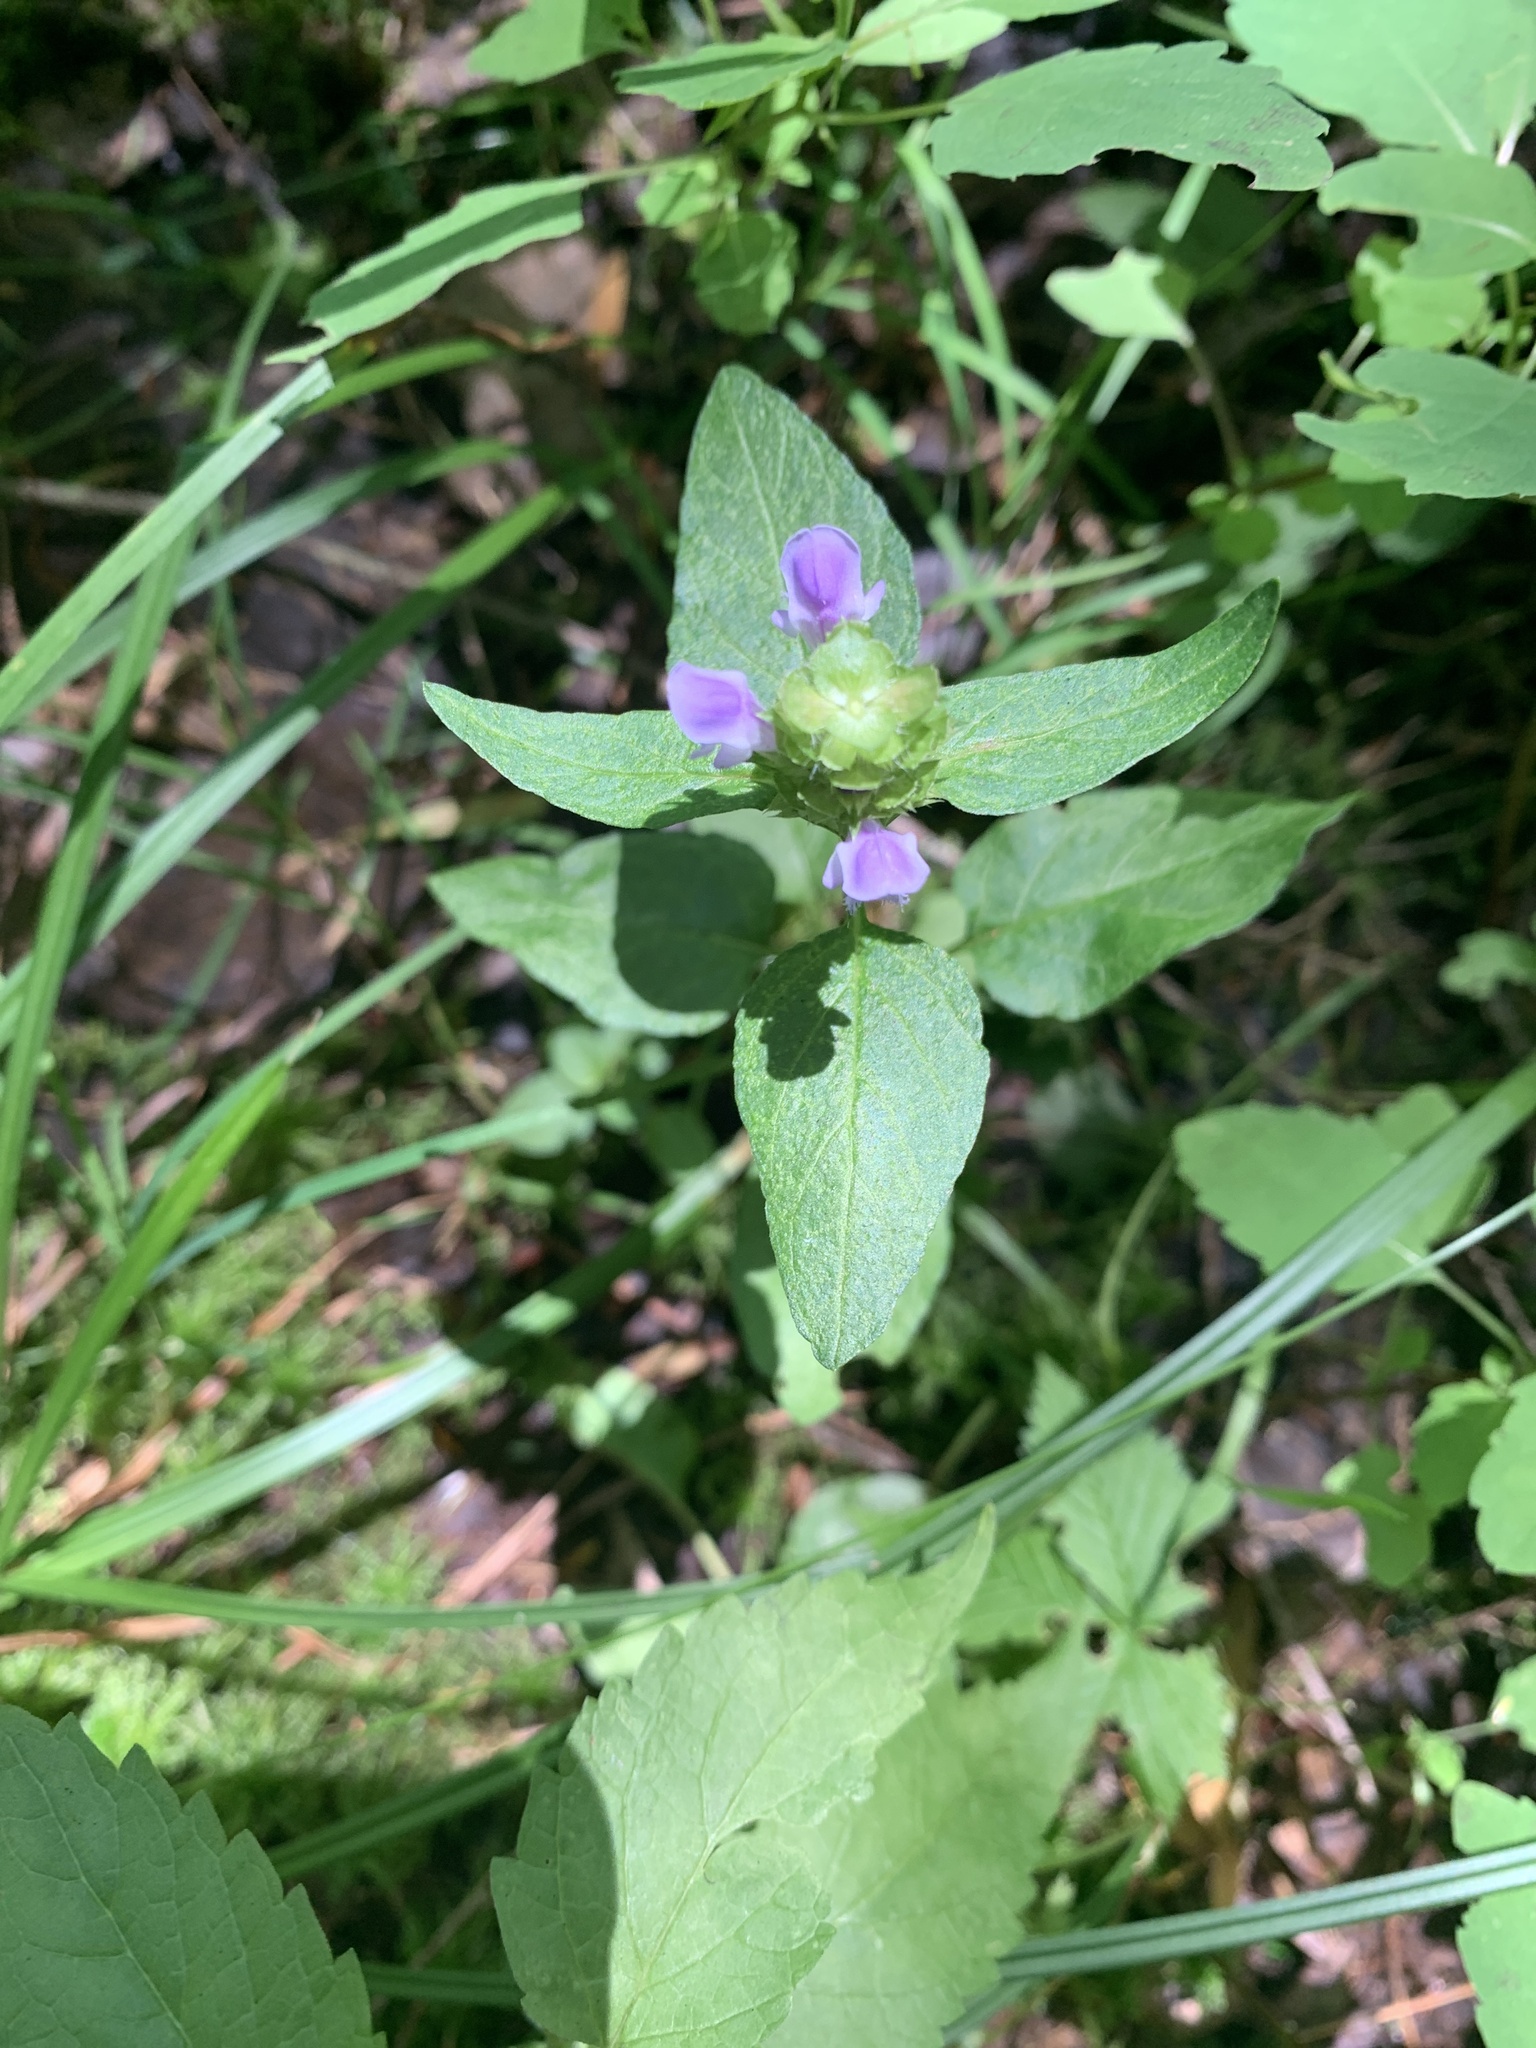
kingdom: Plantae
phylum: Tracheophyta
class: Magnoliopsida
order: Lamiales
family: Lamiaceae
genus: Prunella
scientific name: Prunella vulgaris
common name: Heal-all
